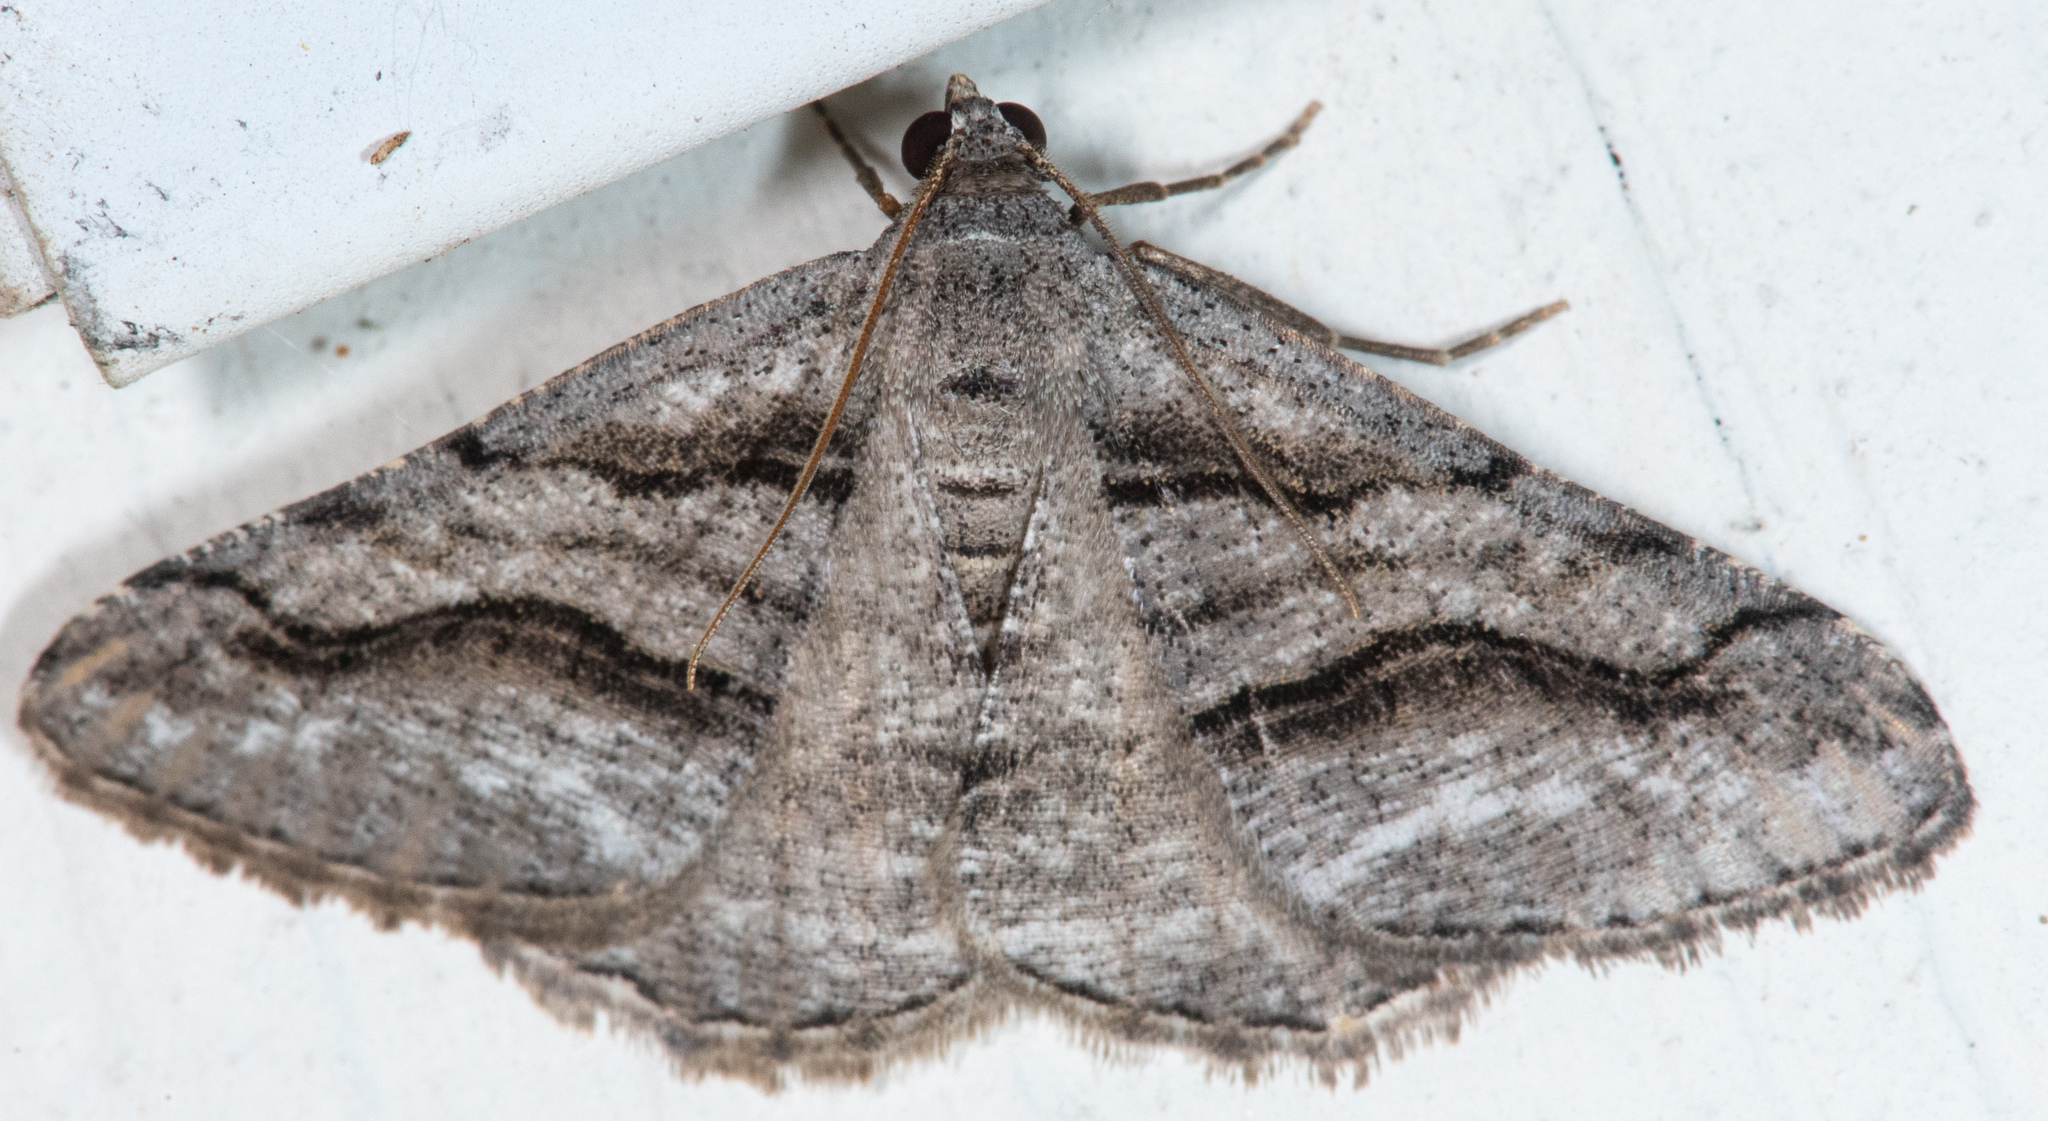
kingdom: Animalia
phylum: Arthropoda
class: Insecta
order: Lepidoptera
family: Geometridae
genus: Digrammia
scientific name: Digrammia excurvata
